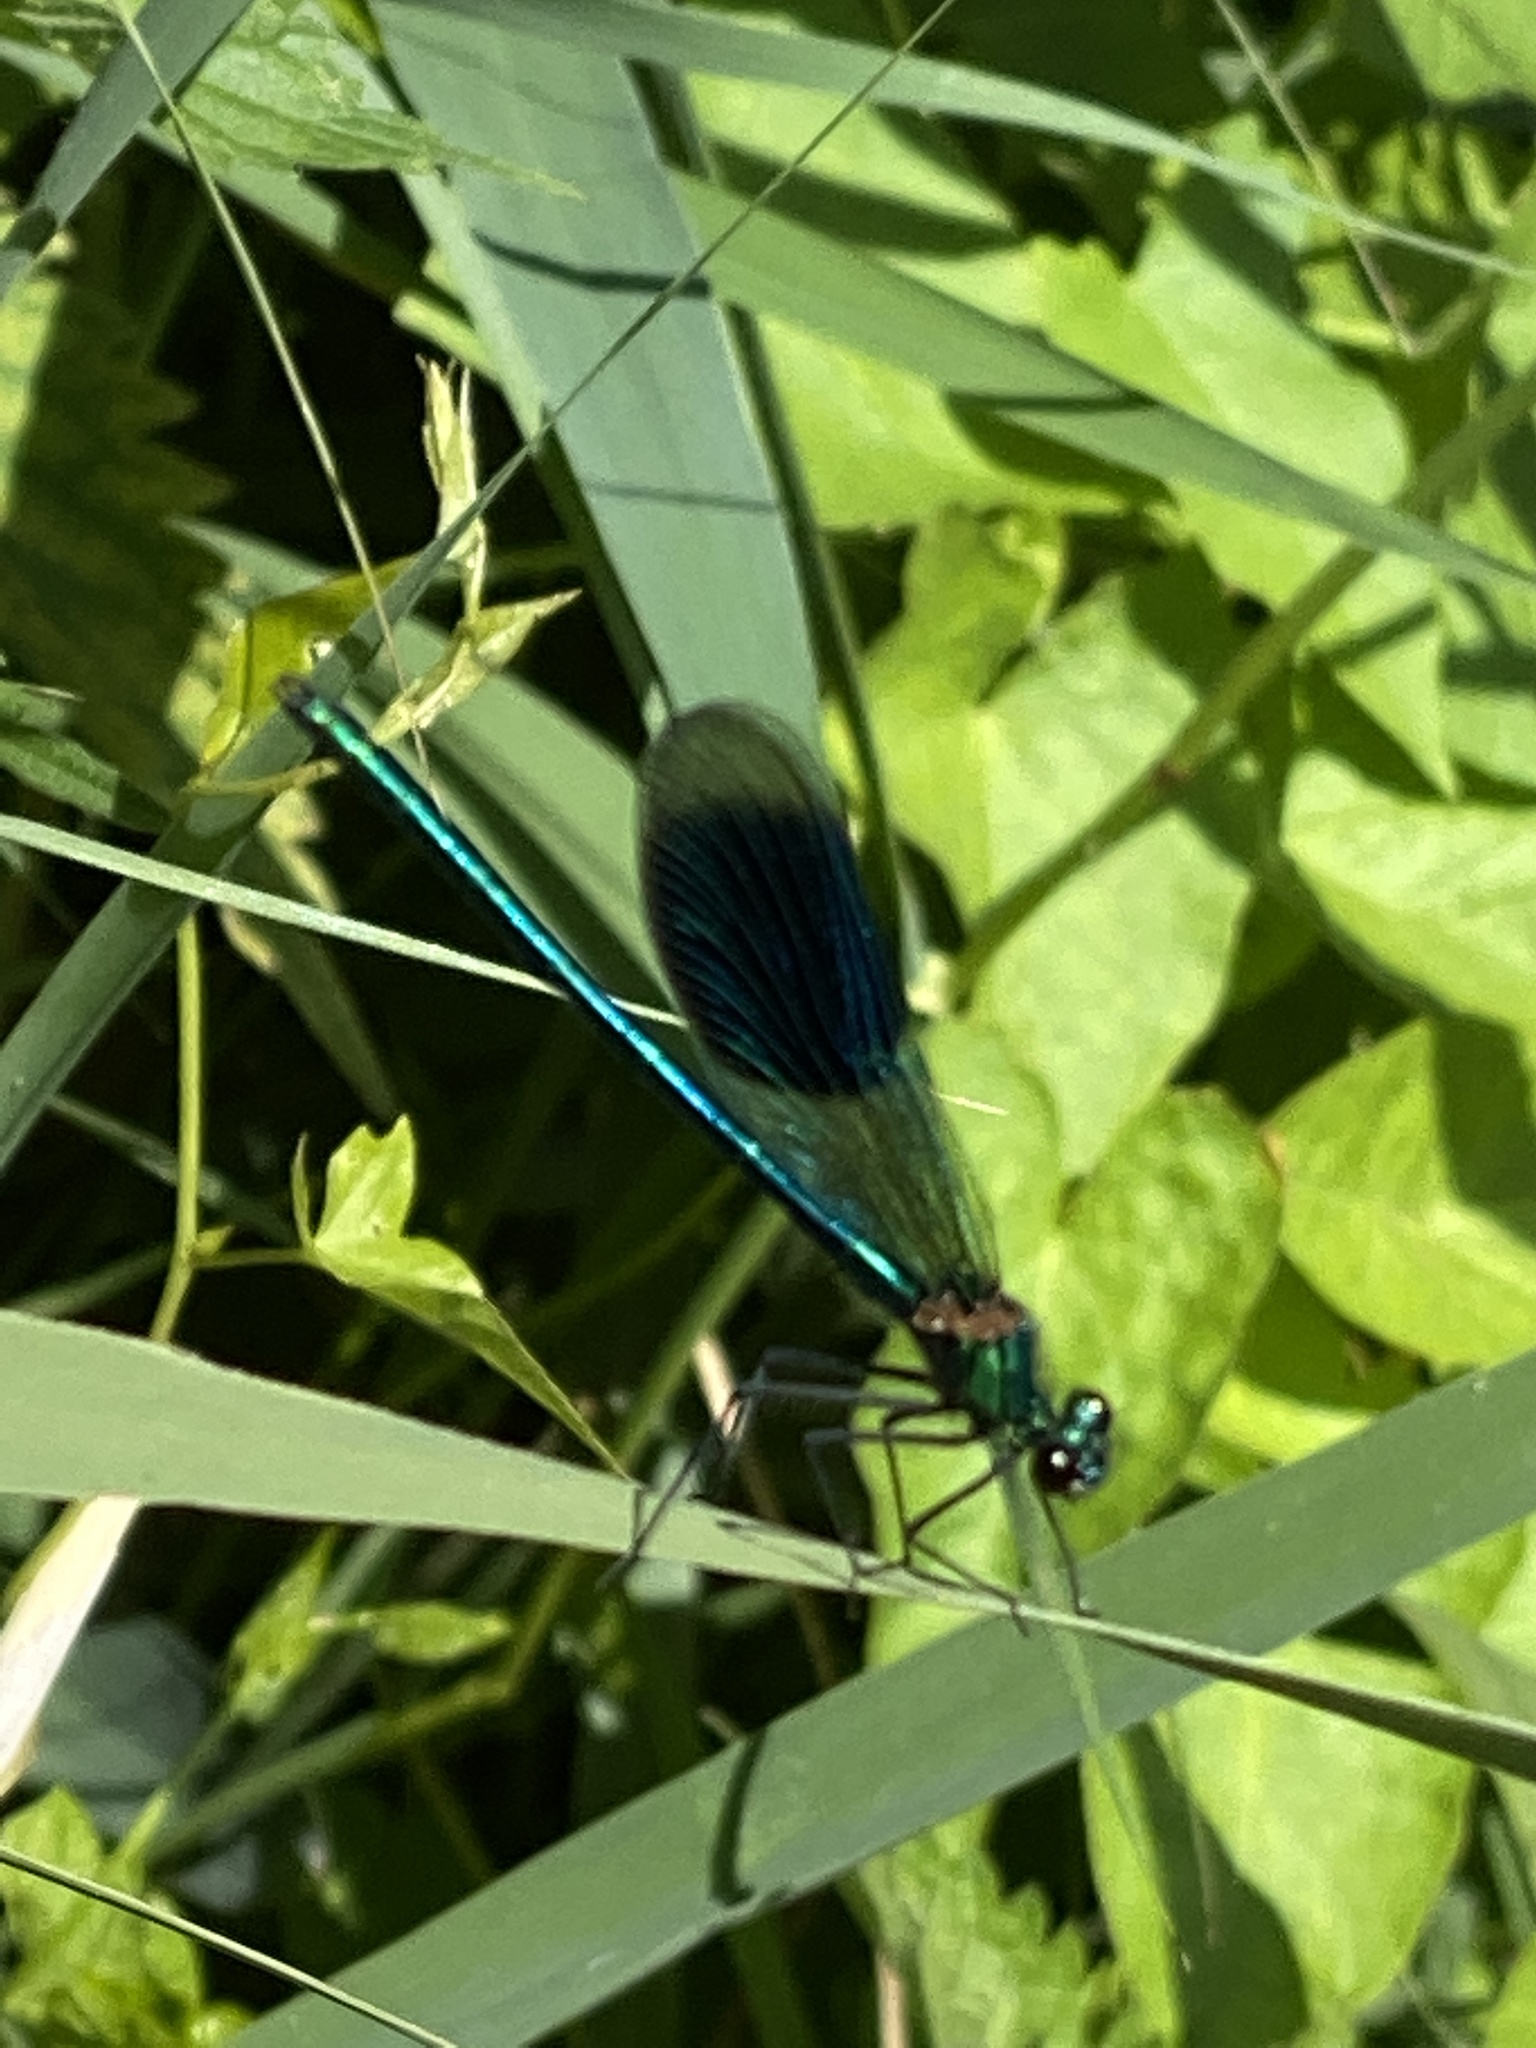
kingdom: Animalia
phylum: Arthropoda
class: Insecta
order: Odonata
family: Calopterygidae
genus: Calopteryx
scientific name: Calopteryx splendens
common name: Banded demoiselle
